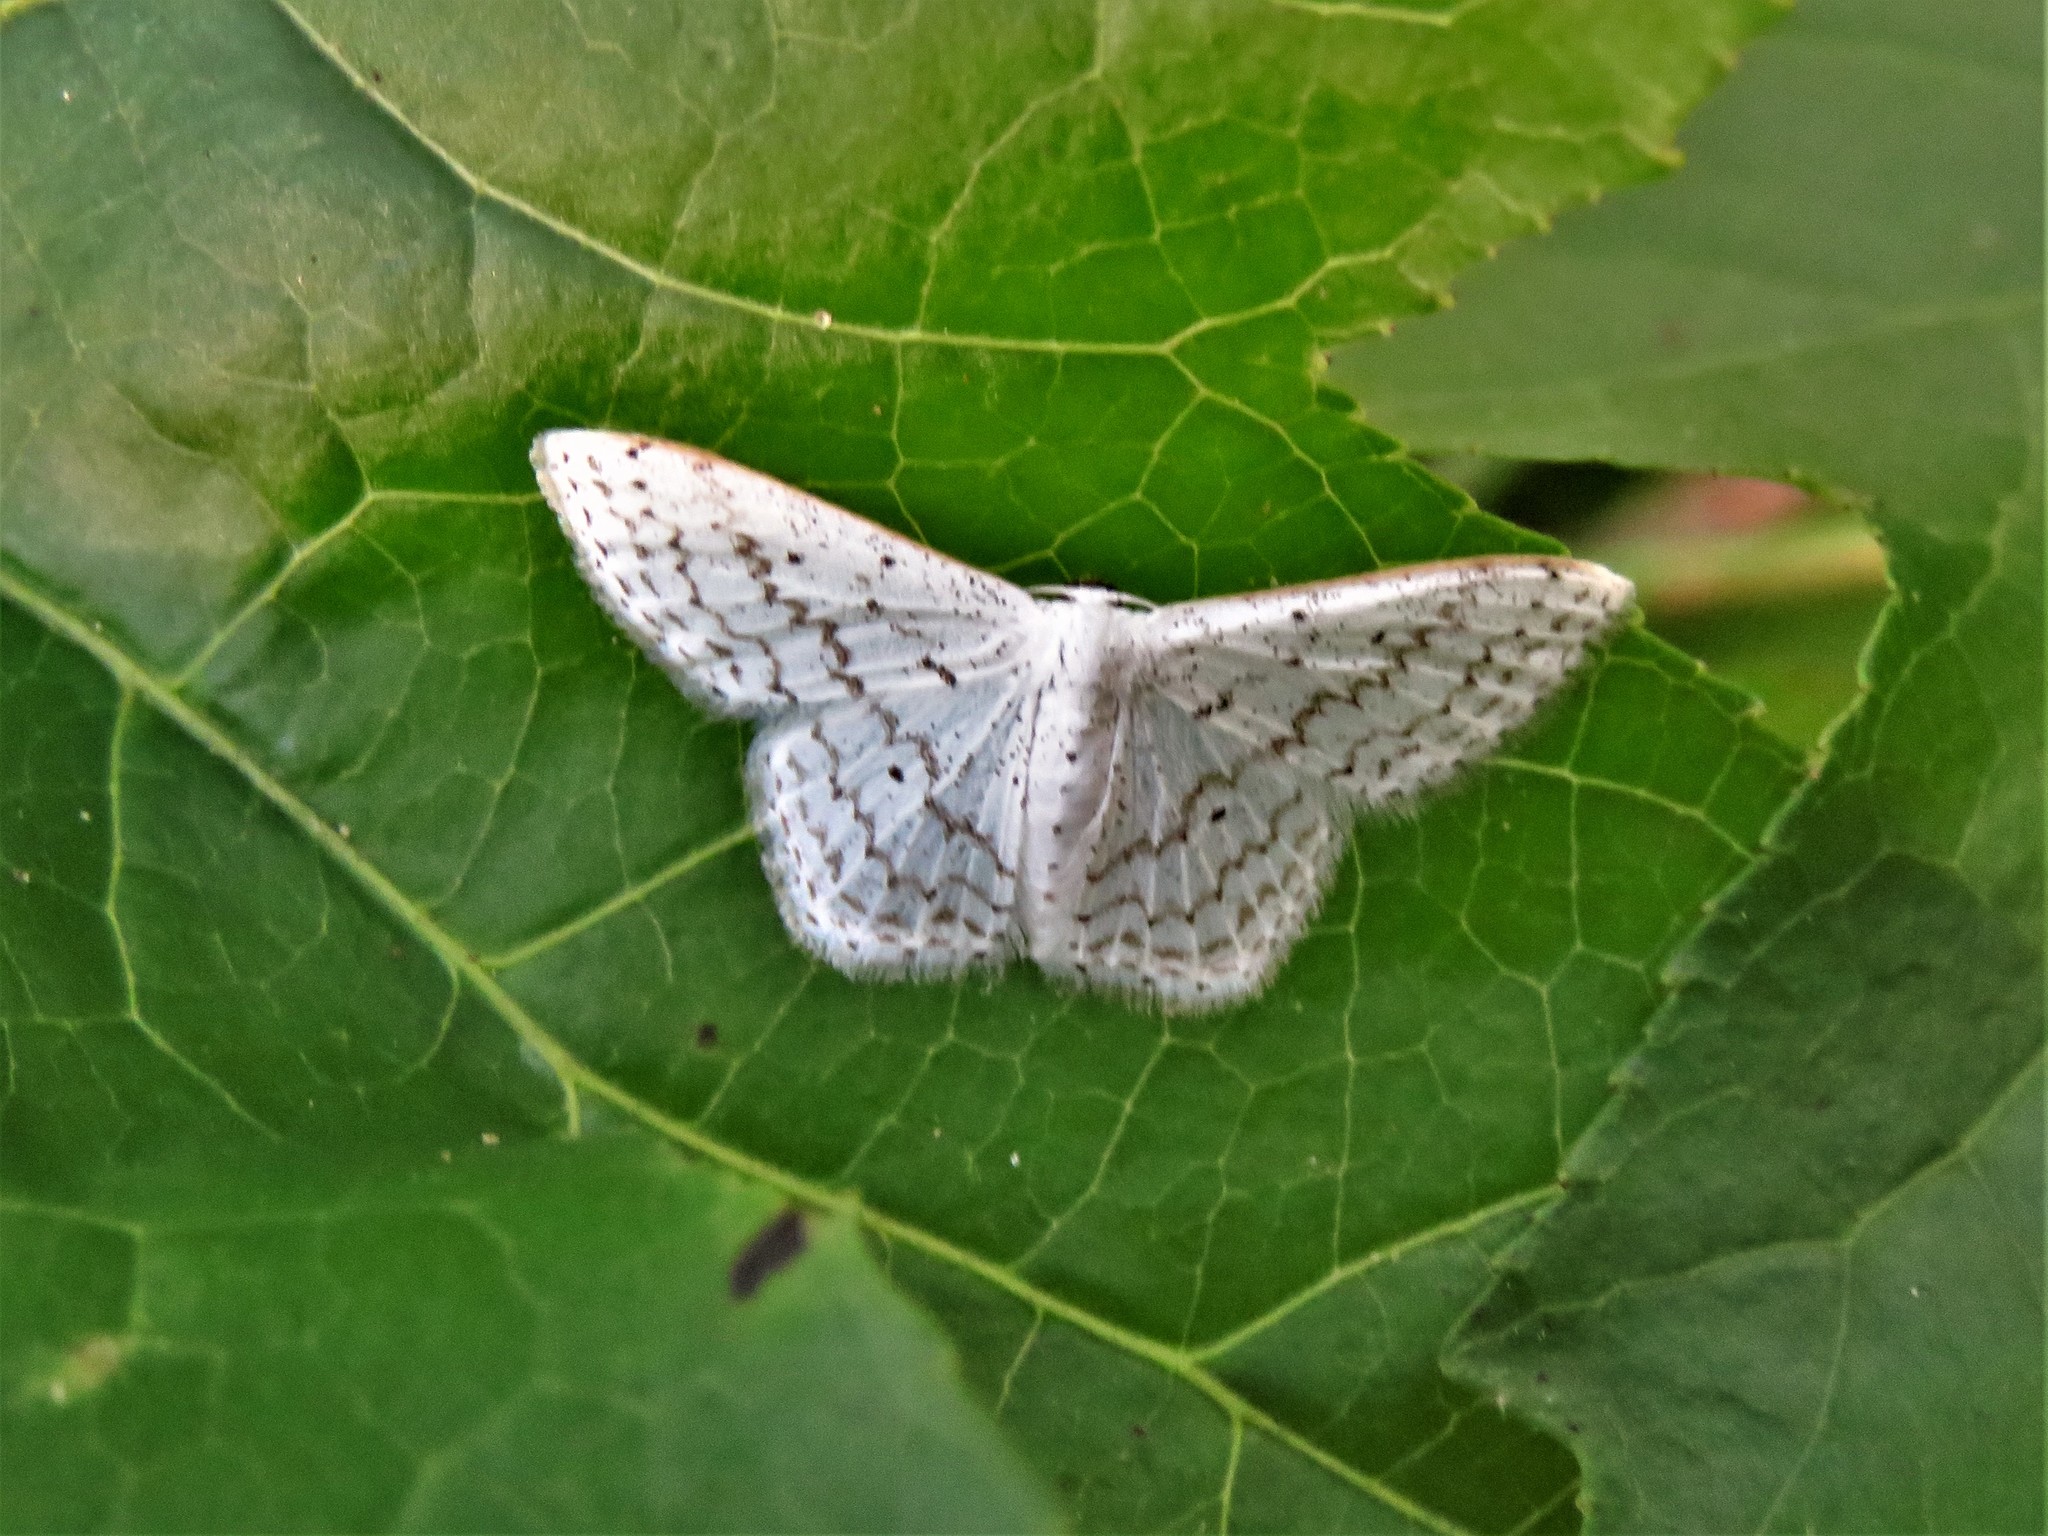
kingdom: Animalia
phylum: Arthropoda
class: Insecta
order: Lepidoptera
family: Geometridae
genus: Idaea
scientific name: Idaea tacturata
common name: Dot-lined wave
